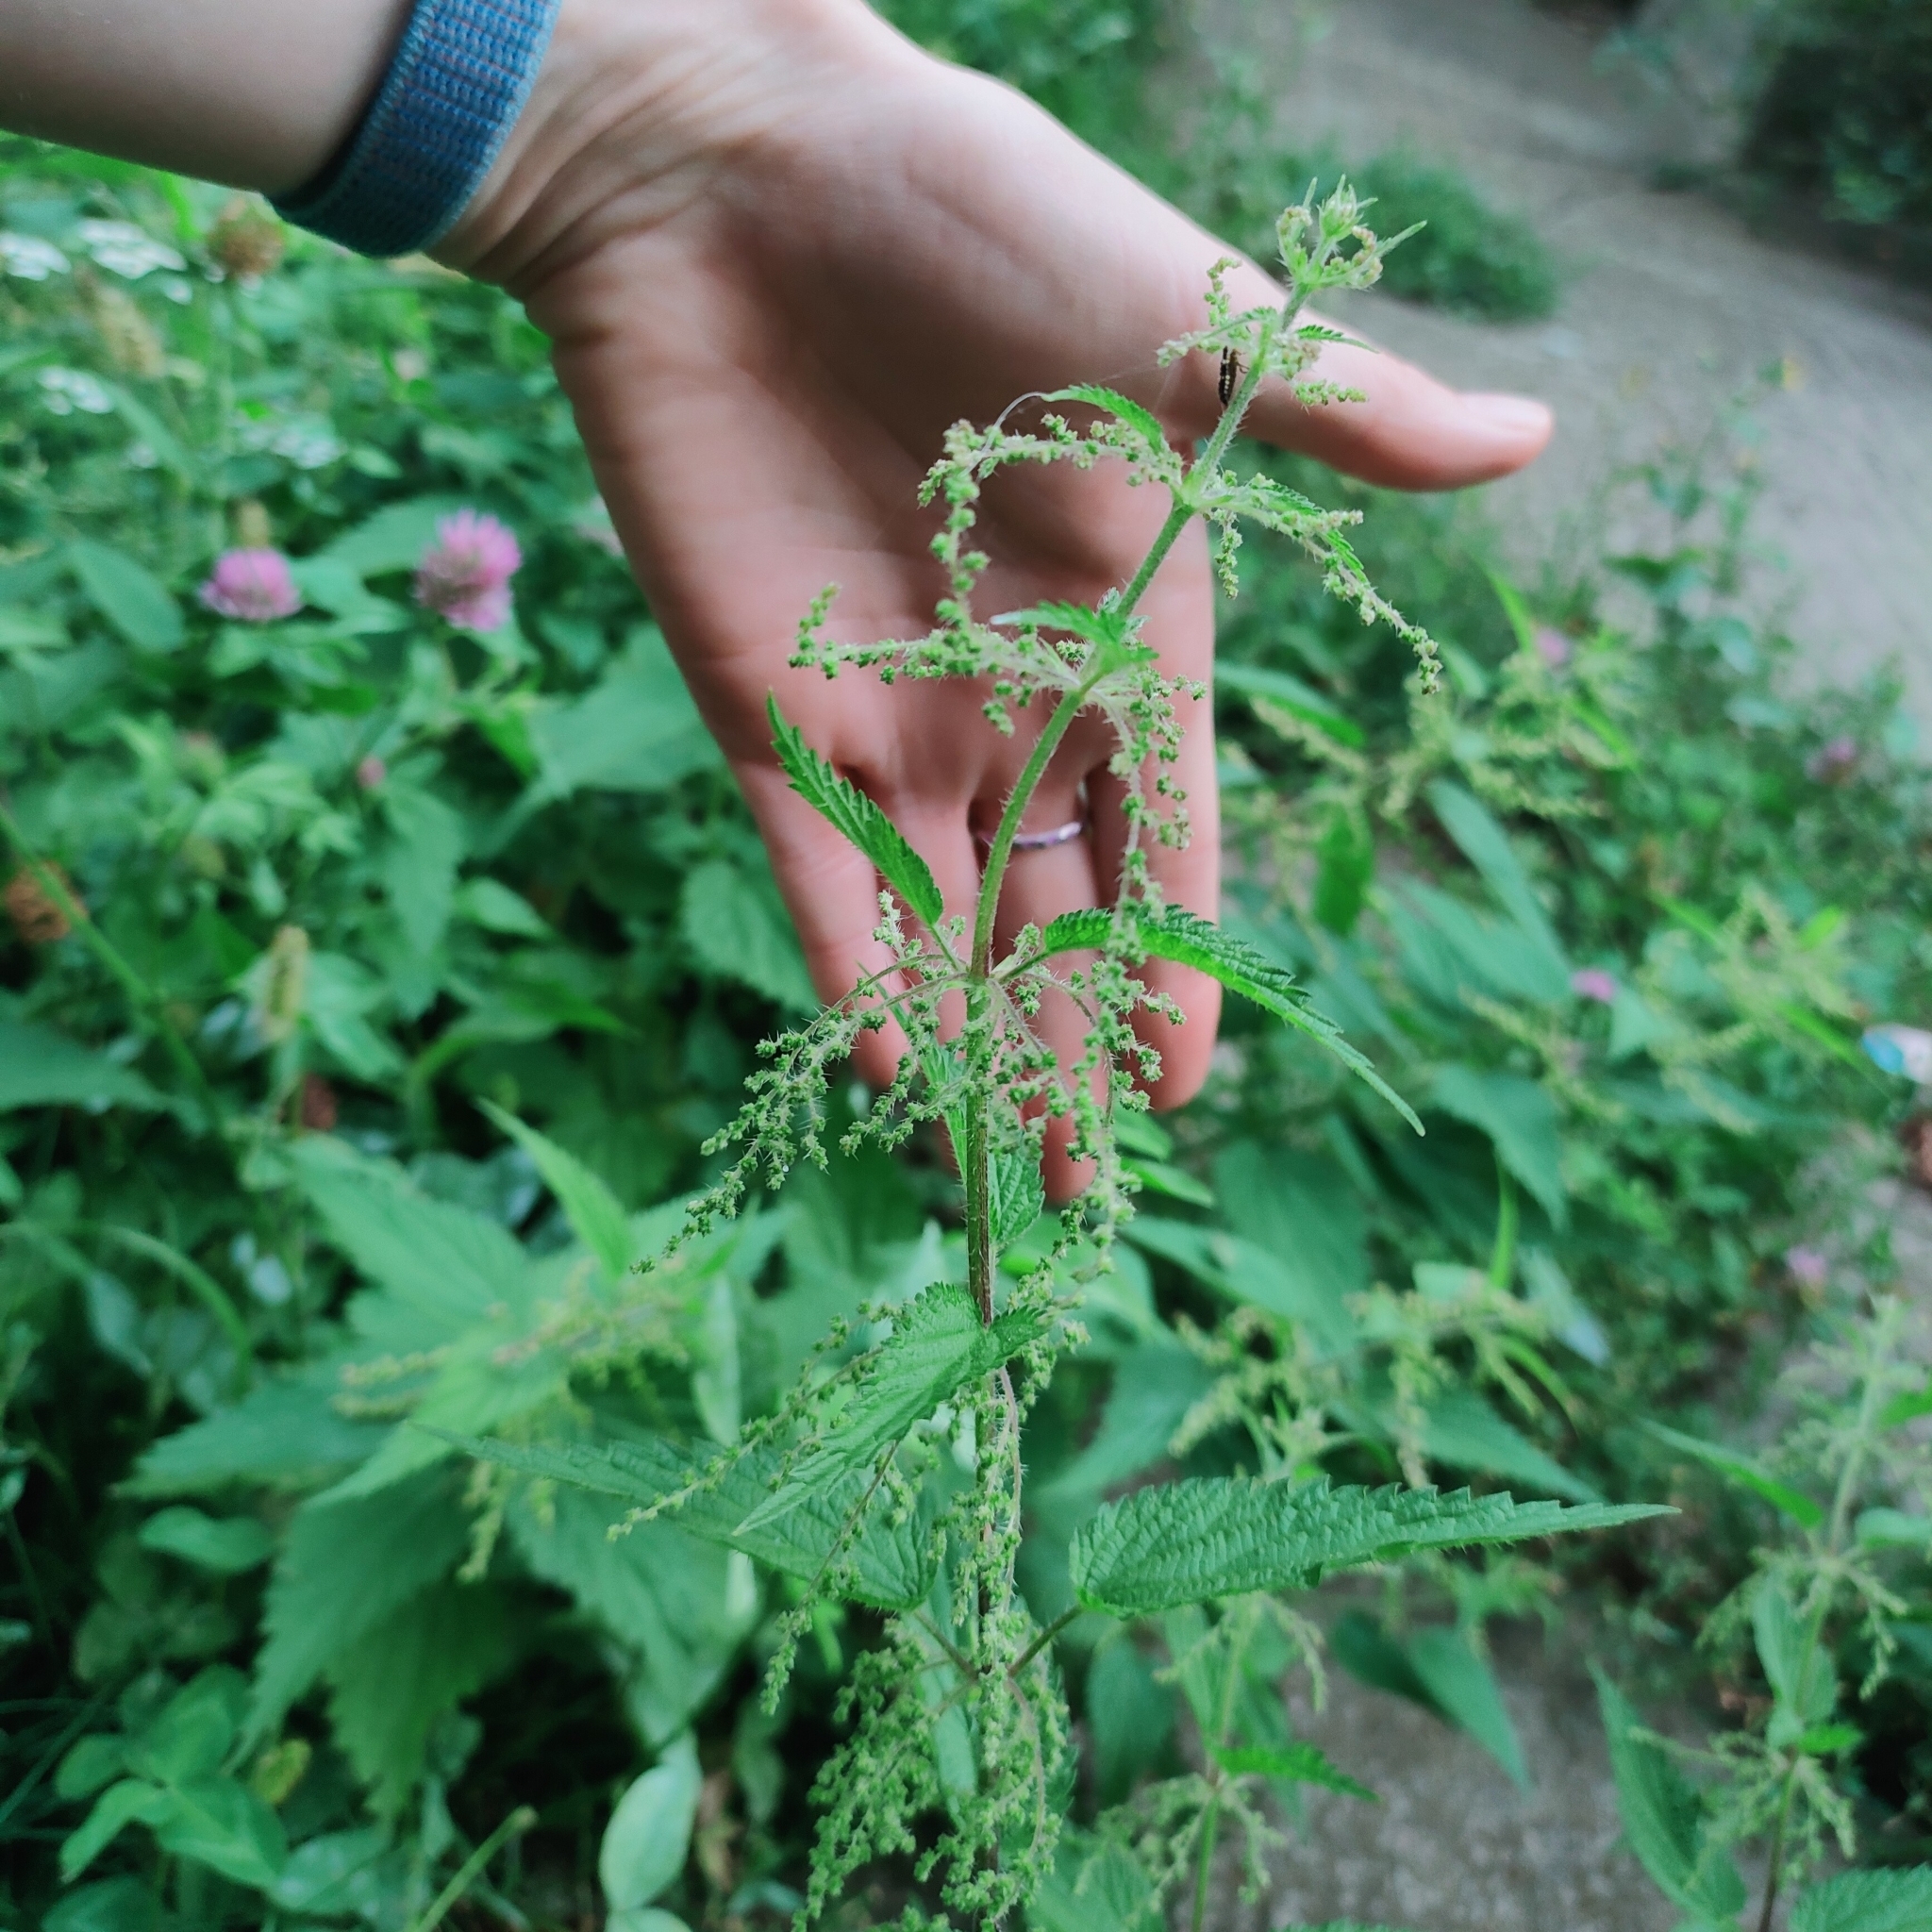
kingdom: Plantae
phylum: Tracheophyta
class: Magnoliopsida
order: Rosales
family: Urticaceae
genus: Urtica
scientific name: Urtica dioica
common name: Common nettle
